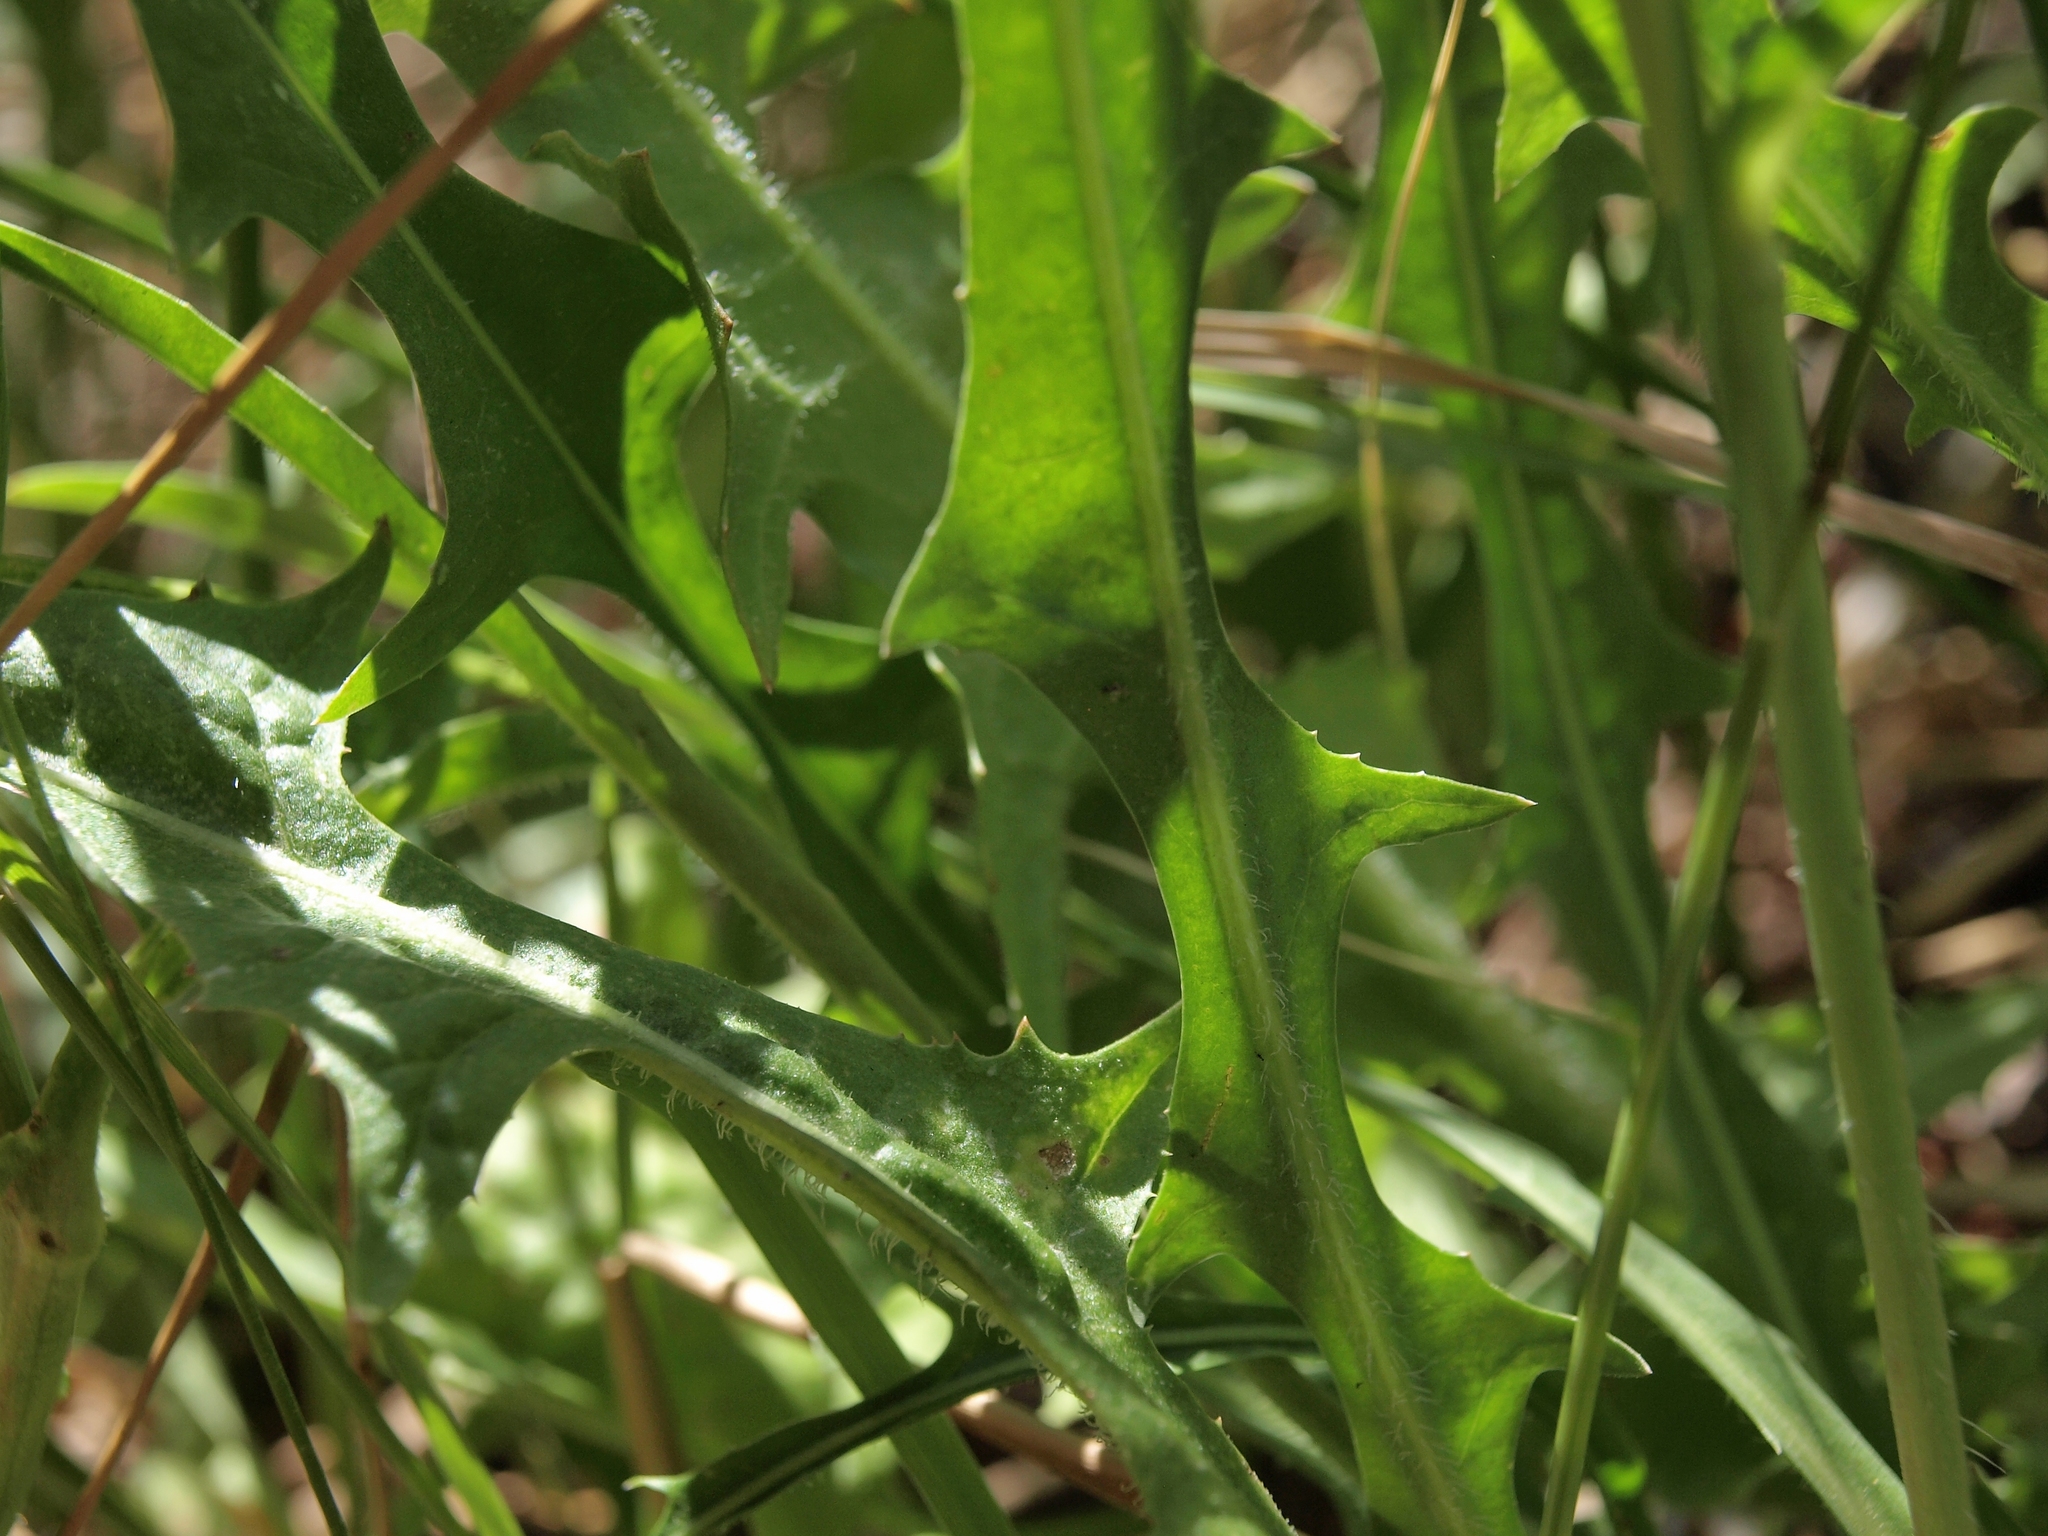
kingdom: Plantae
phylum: Tracheophyta
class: Magnoliopsida
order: Asterales
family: Asteraceae
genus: Cichorium
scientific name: Cichorium intybus
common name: Chicory
